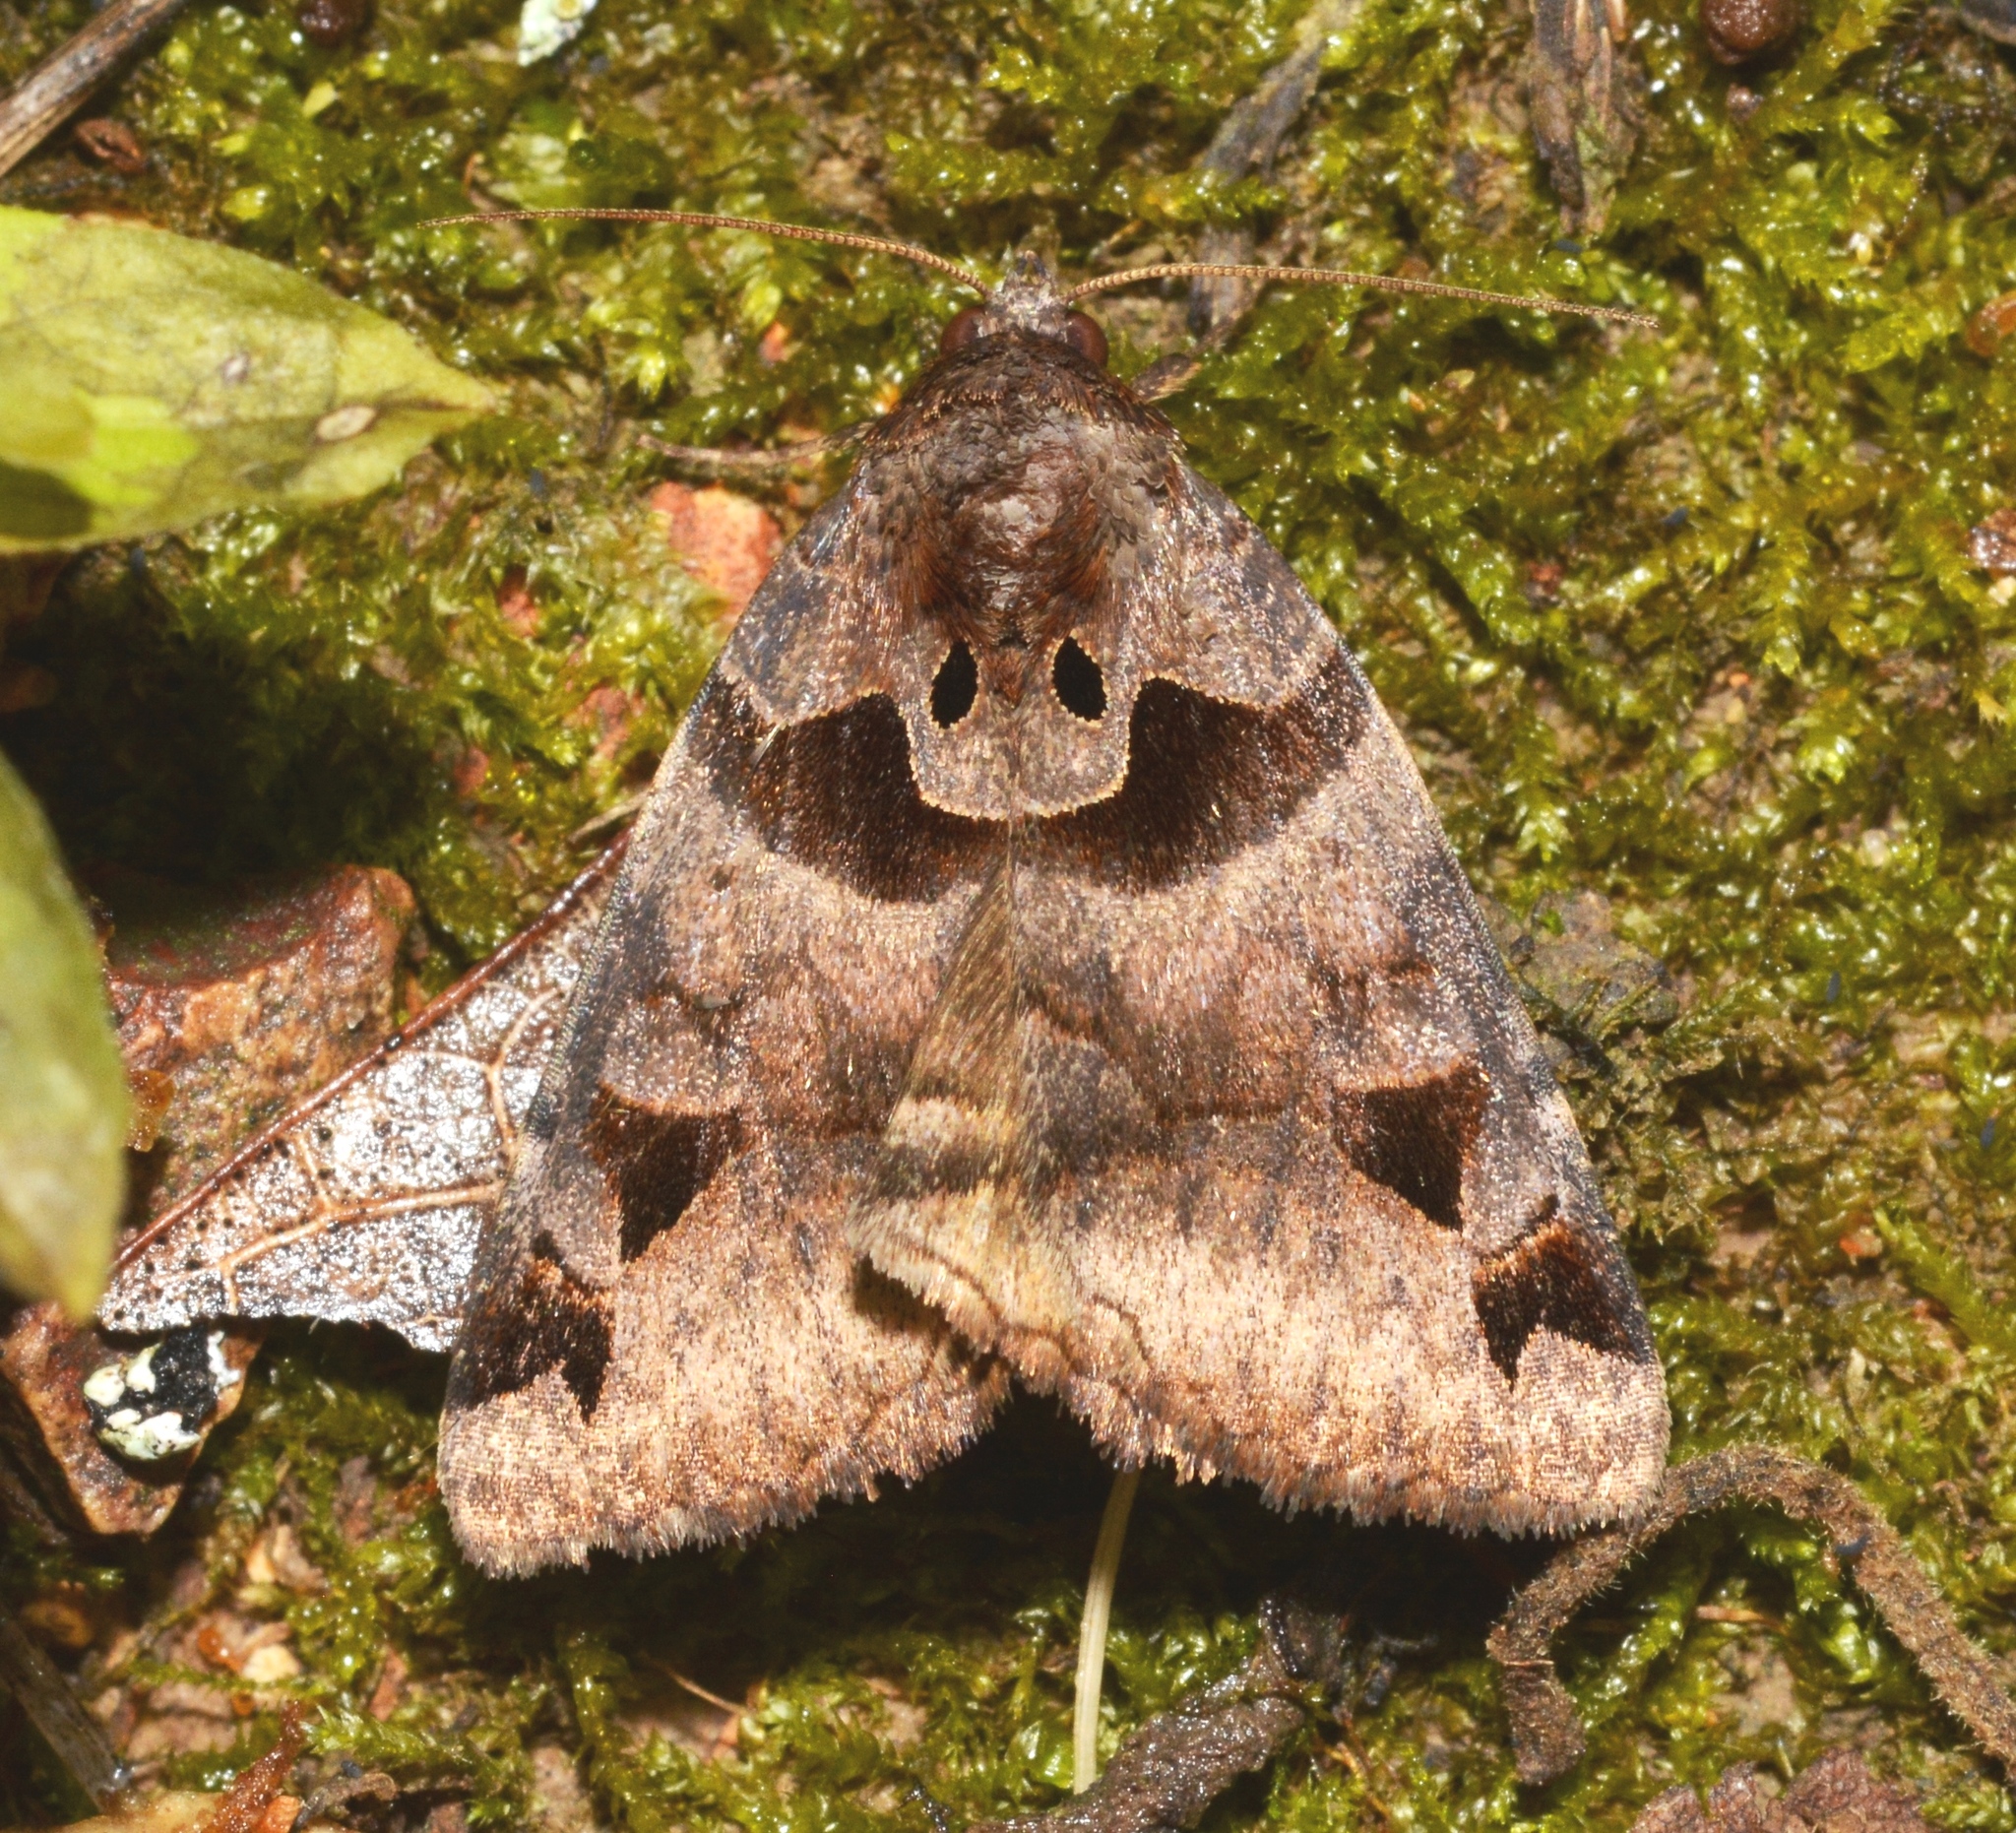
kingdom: Animalia
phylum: Arthropoda
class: Insecta
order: Lepidoptera
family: Erebidae
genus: Euclidia
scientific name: Euclidia cuspidea
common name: Toothed somberwing
